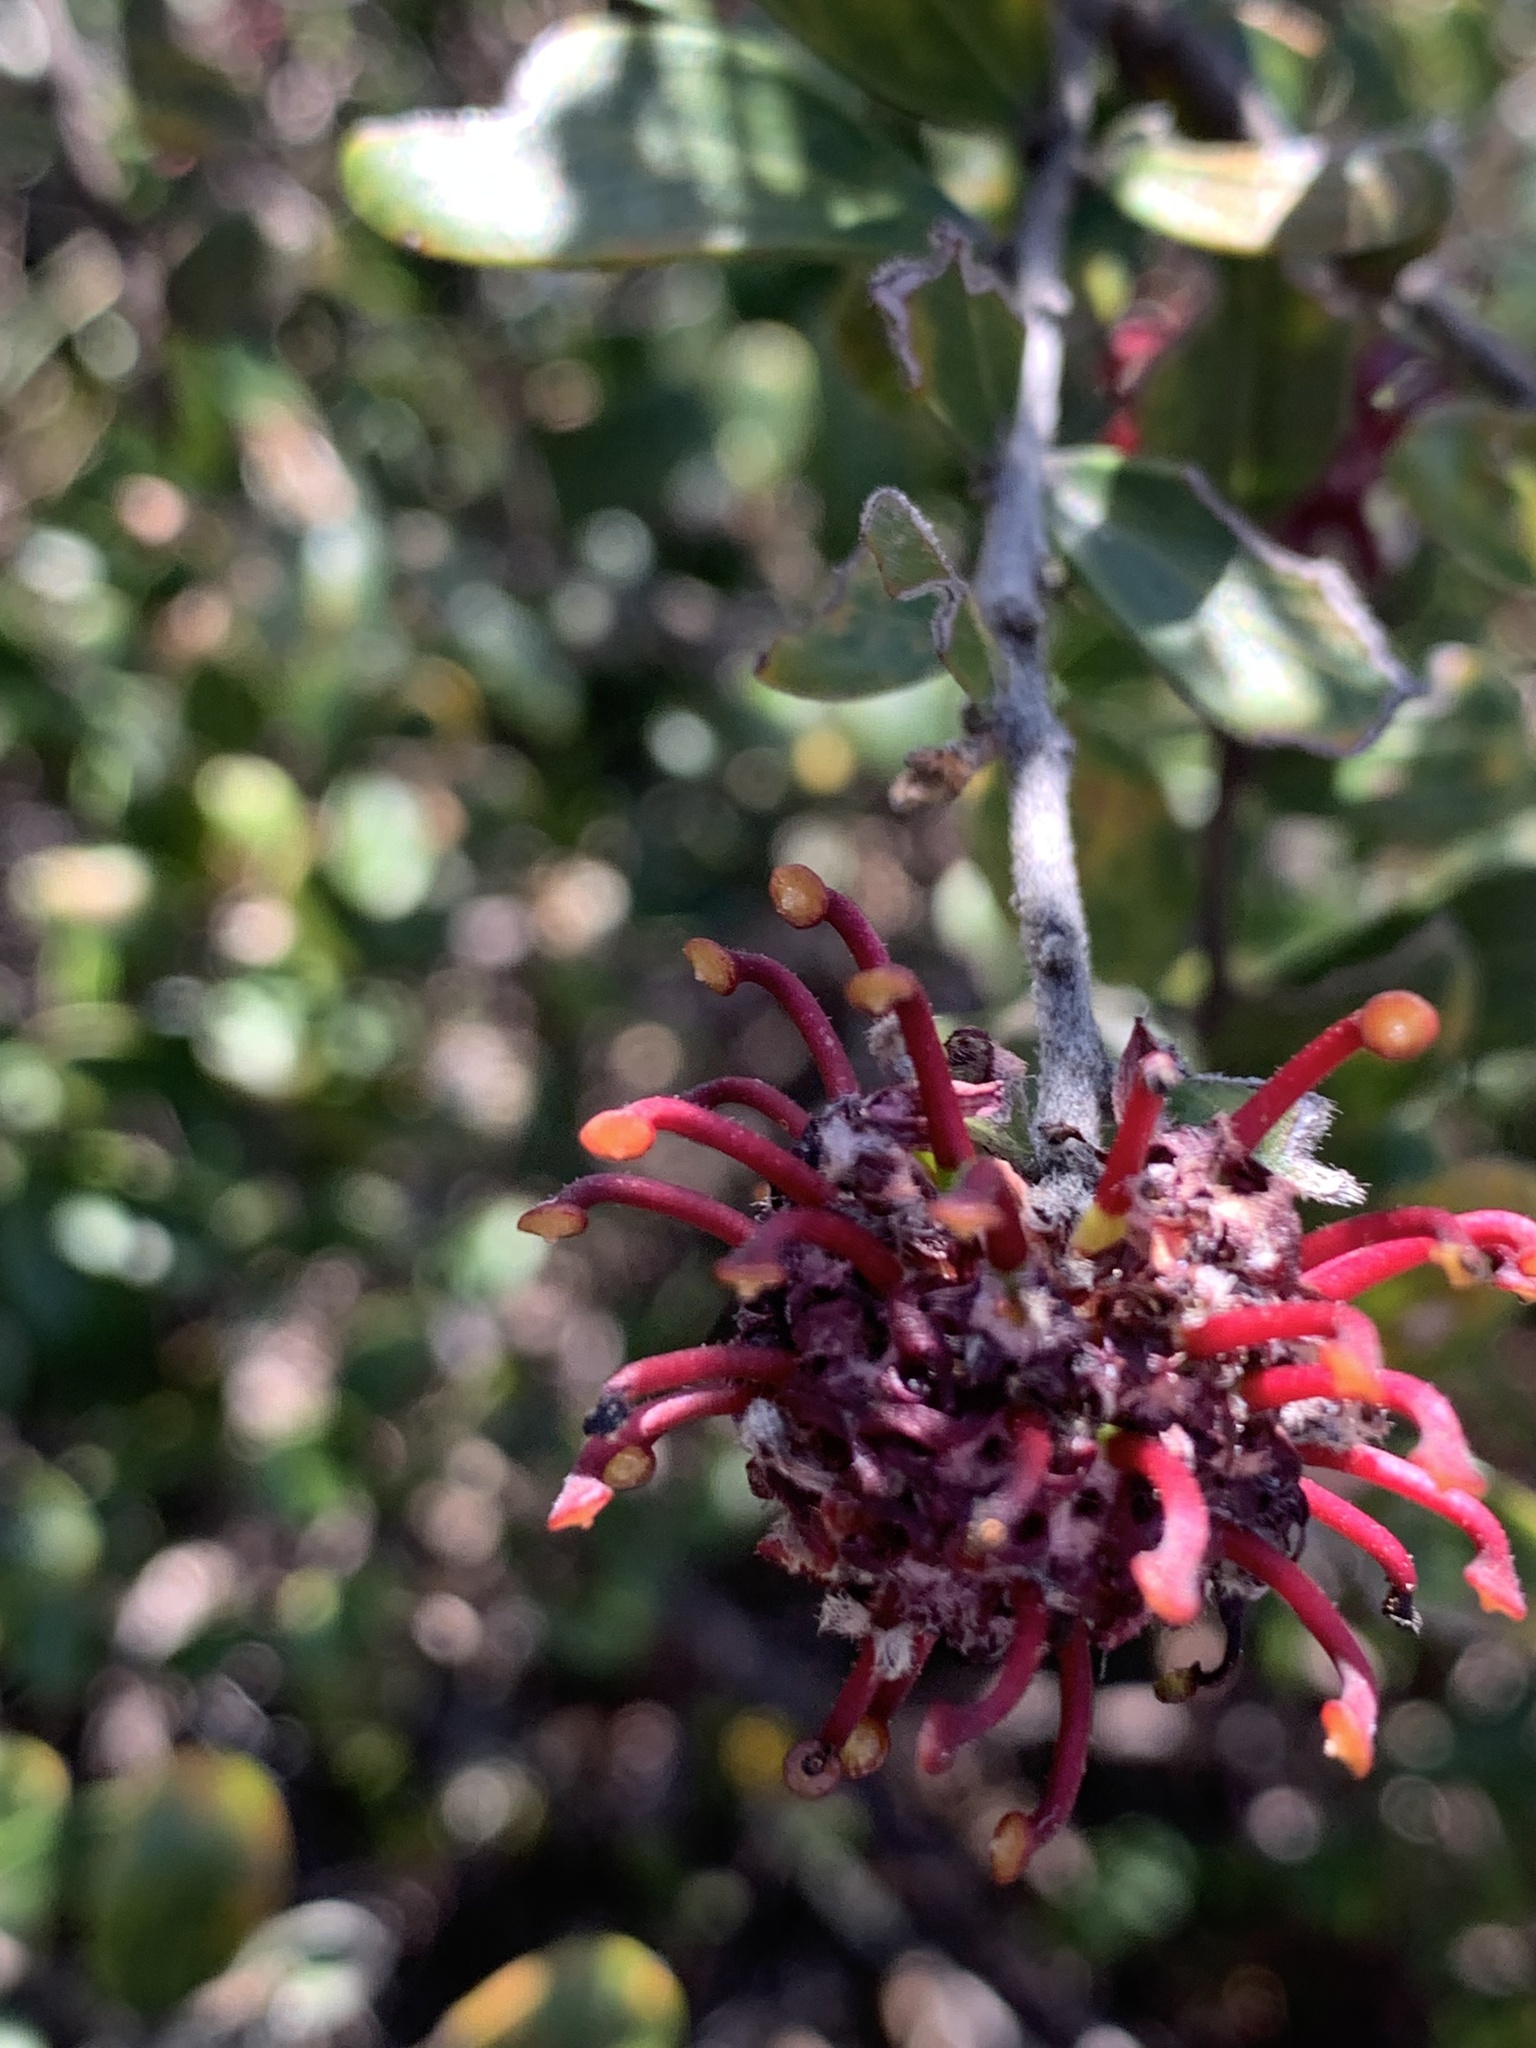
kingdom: Plantae
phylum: Tracheophyta
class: Magnoliopsida
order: Proteales
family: Proteaceae
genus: Grevillea
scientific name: Grevillea evansiana
